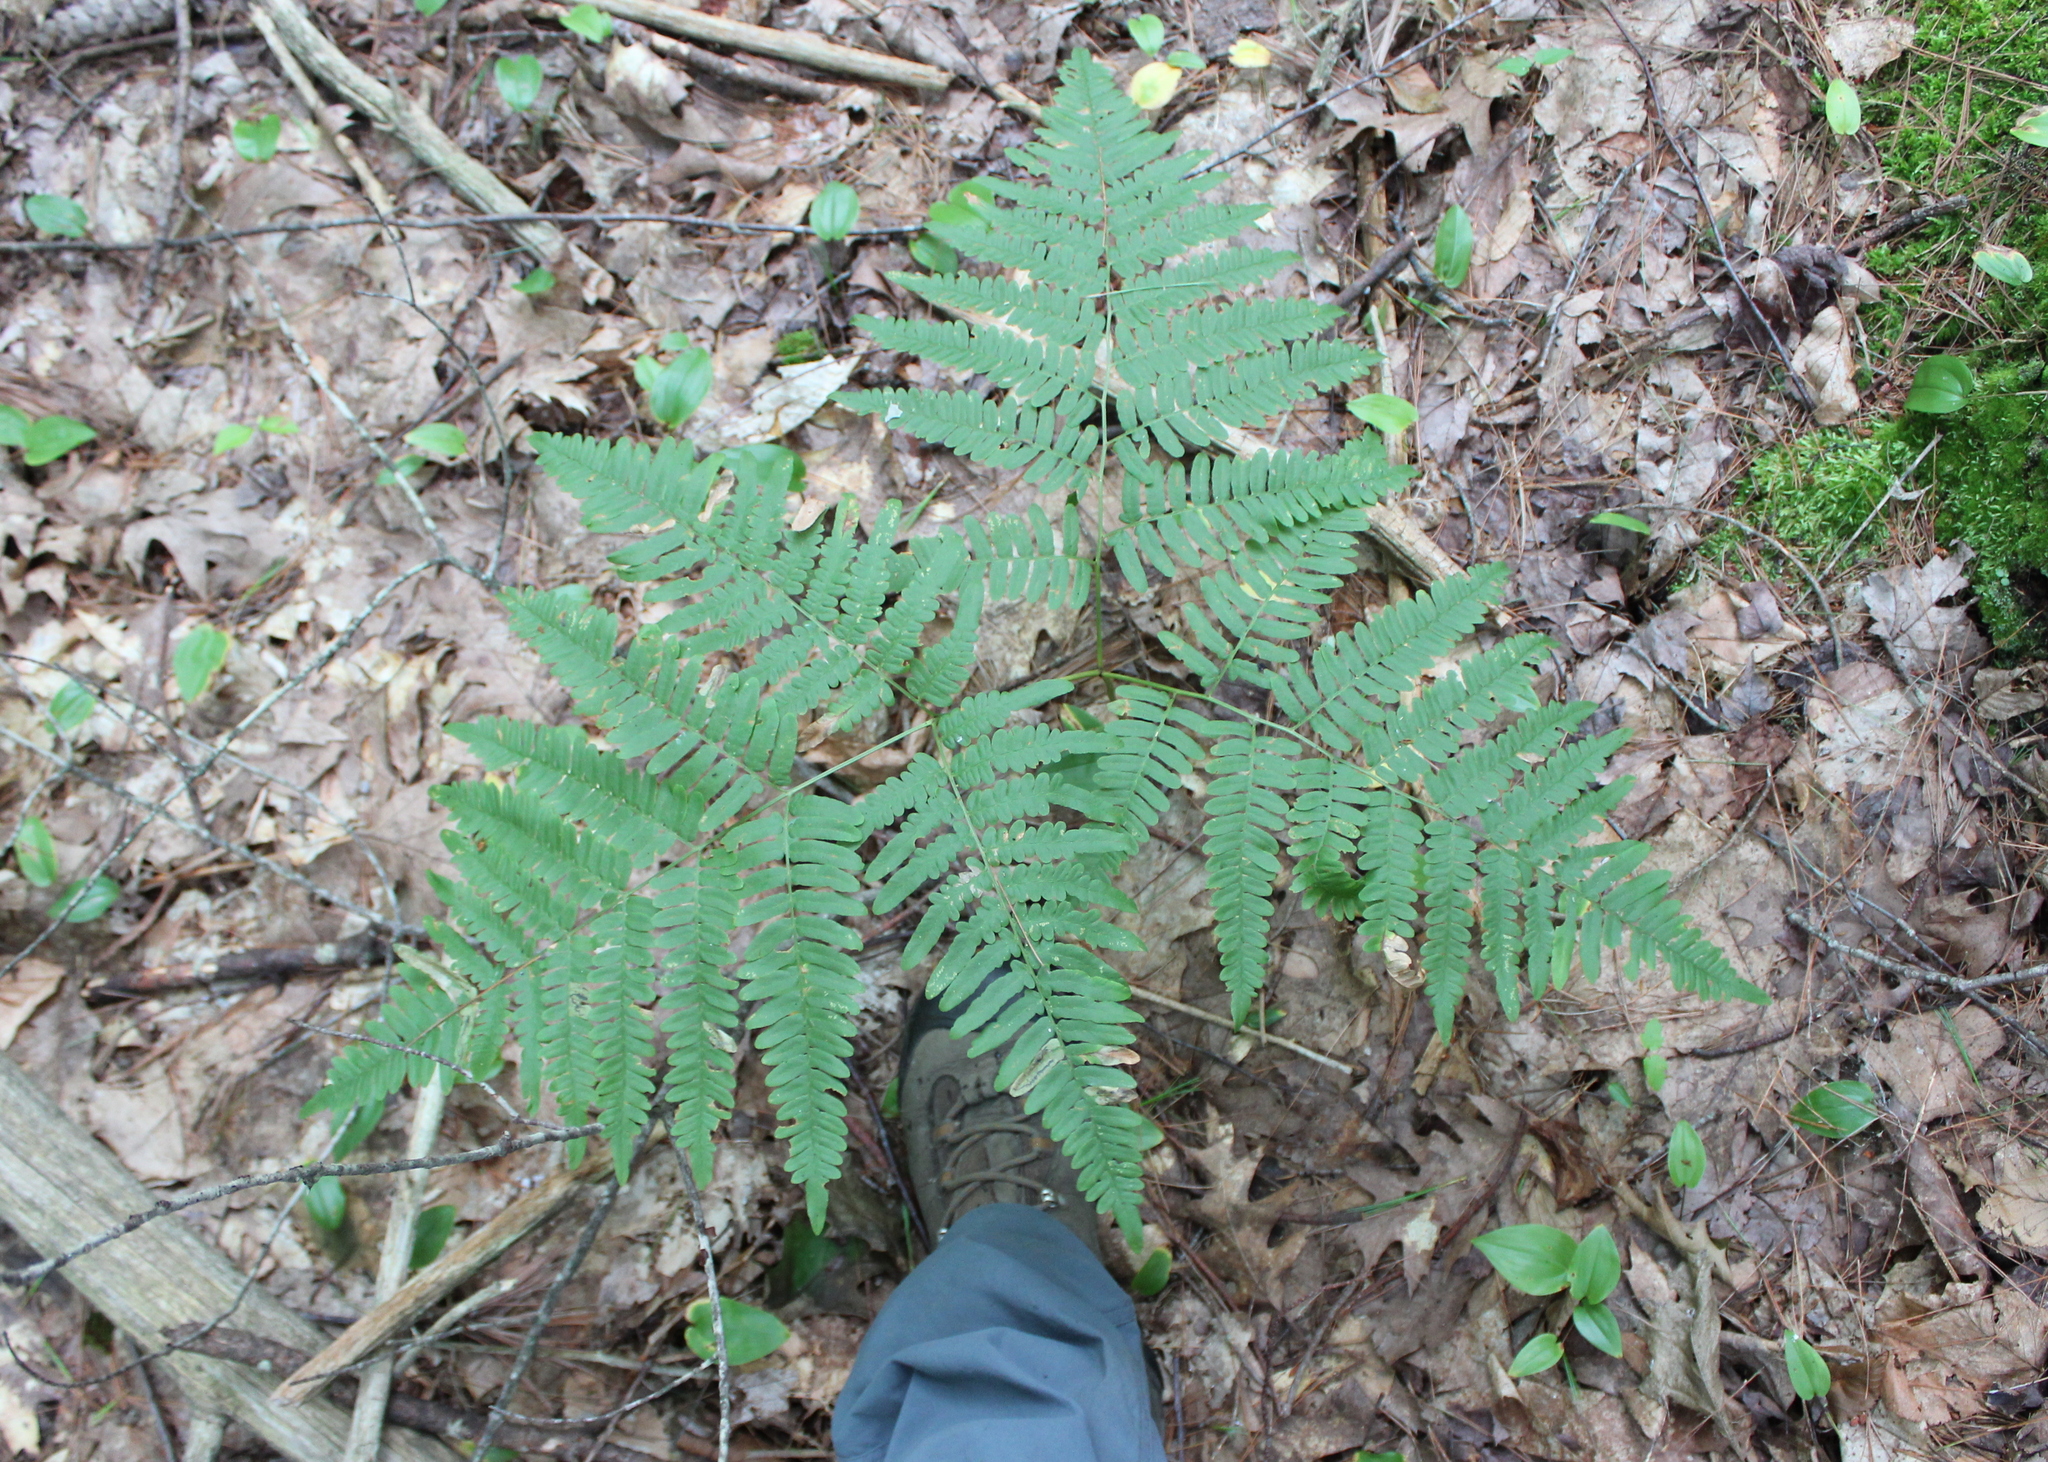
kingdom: Plantae
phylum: Tracheophyta
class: Polypodiopsida
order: Polypodiales
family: Dennstaedtiaceae
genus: Pteridium
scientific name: Pteridium aquilinum
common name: Bracken
